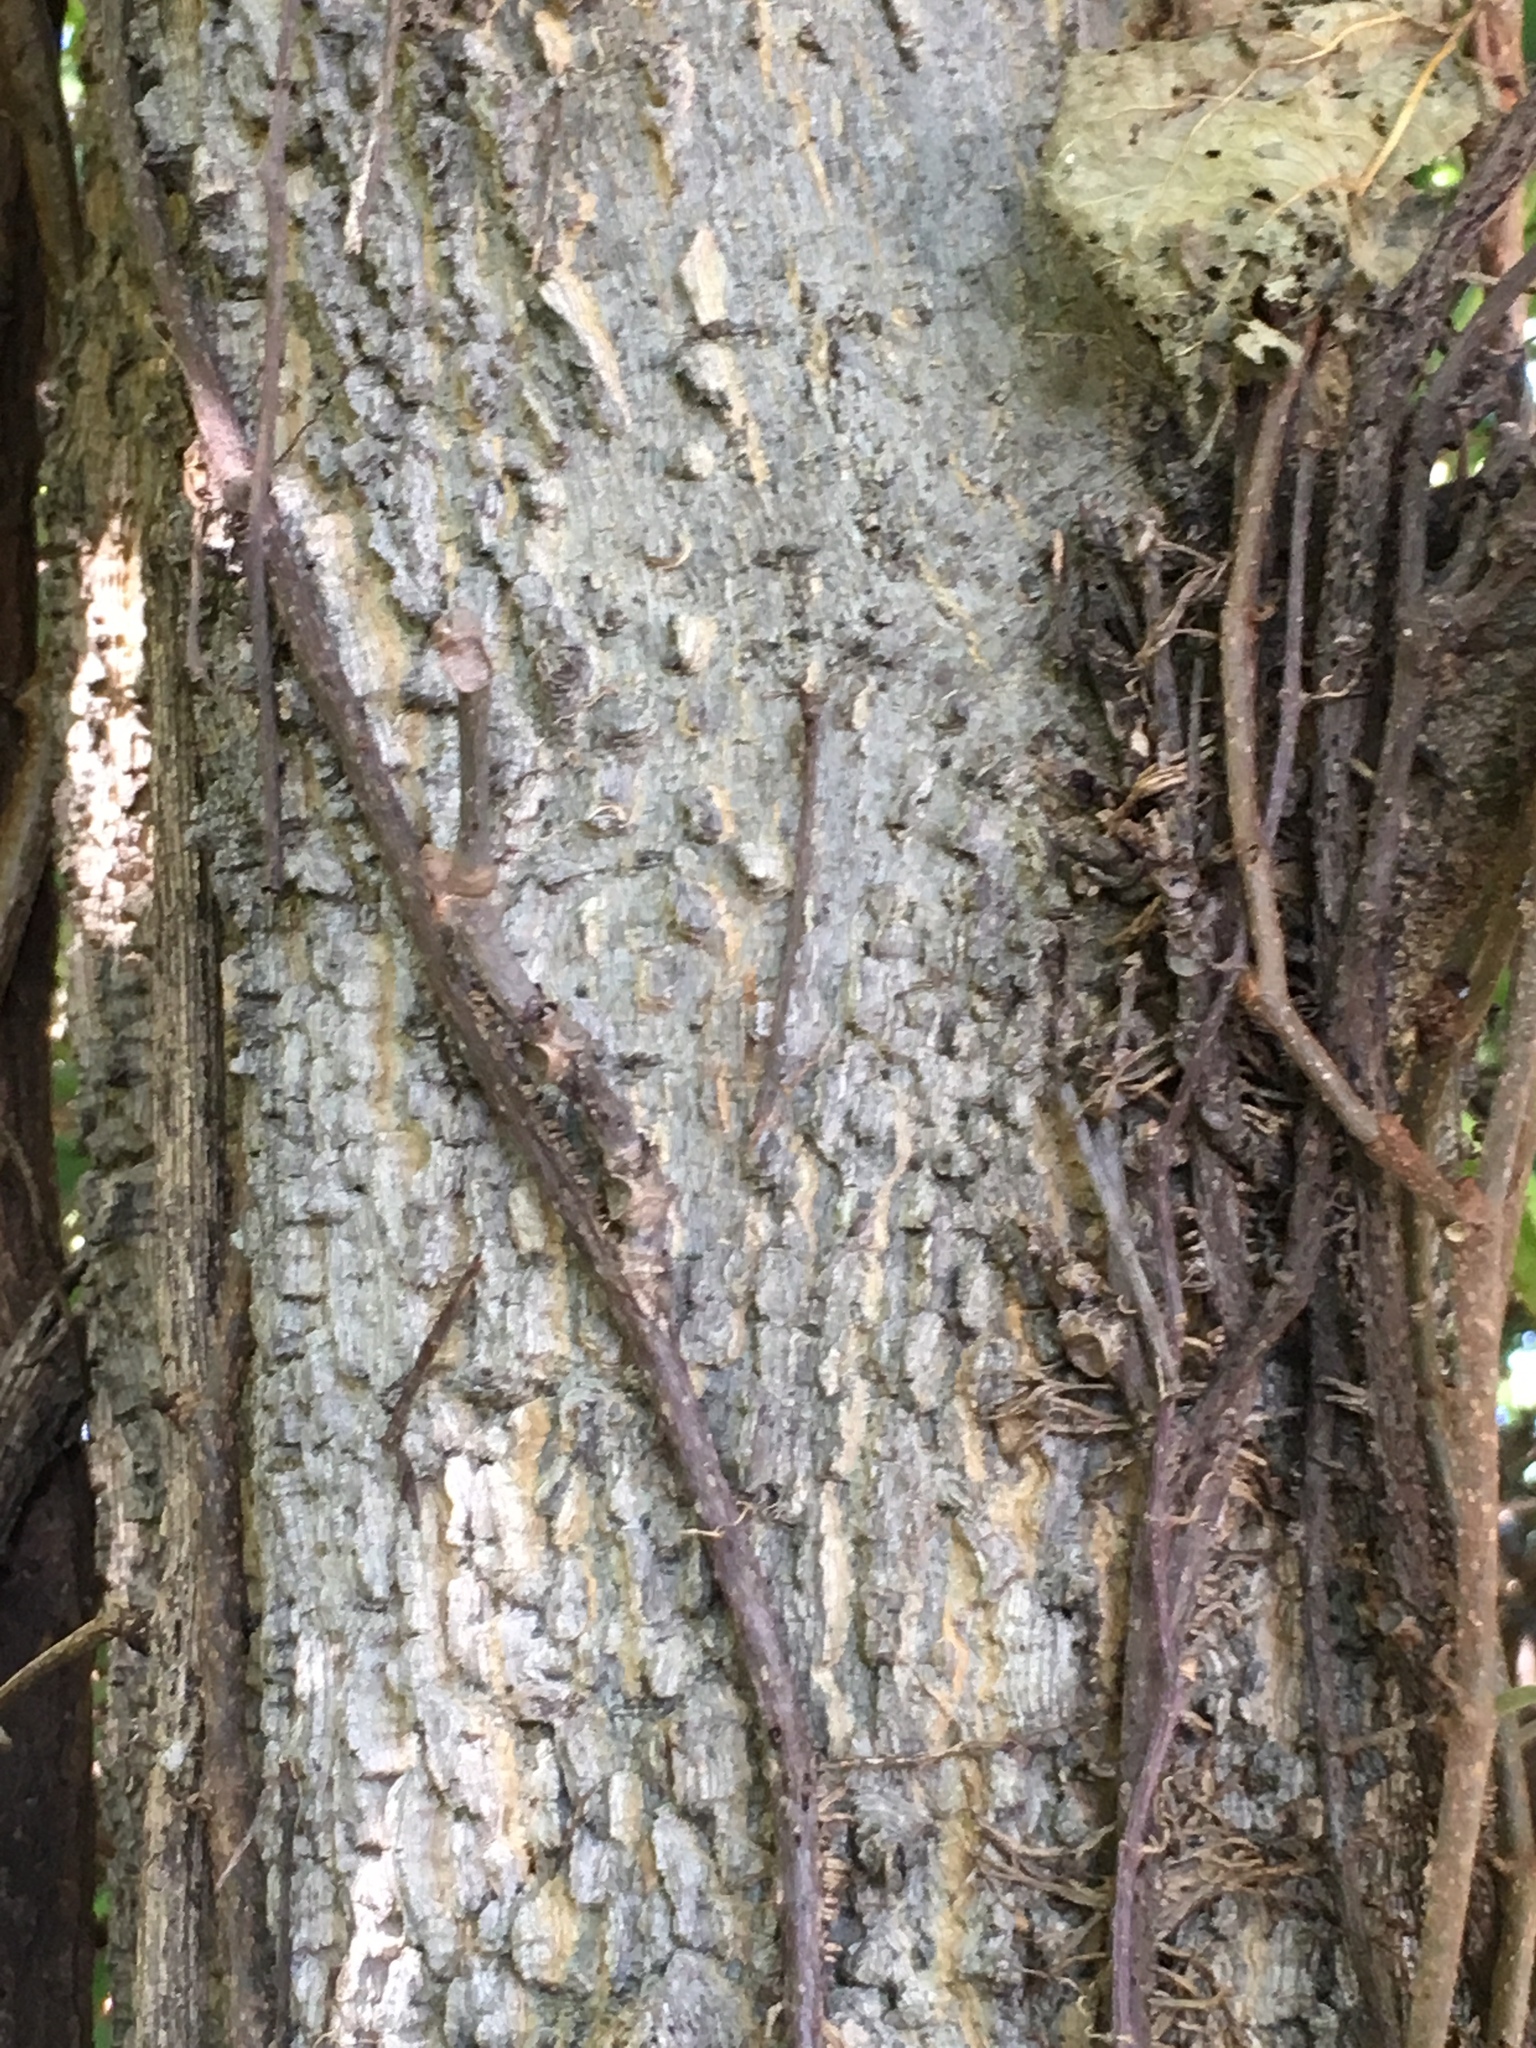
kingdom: Plantae
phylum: Tracheophyta
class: Magnoliopsida
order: Rosales
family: Cannabaceae
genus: Celtis
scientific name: Celtis occidentalis
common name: Common hackberry
